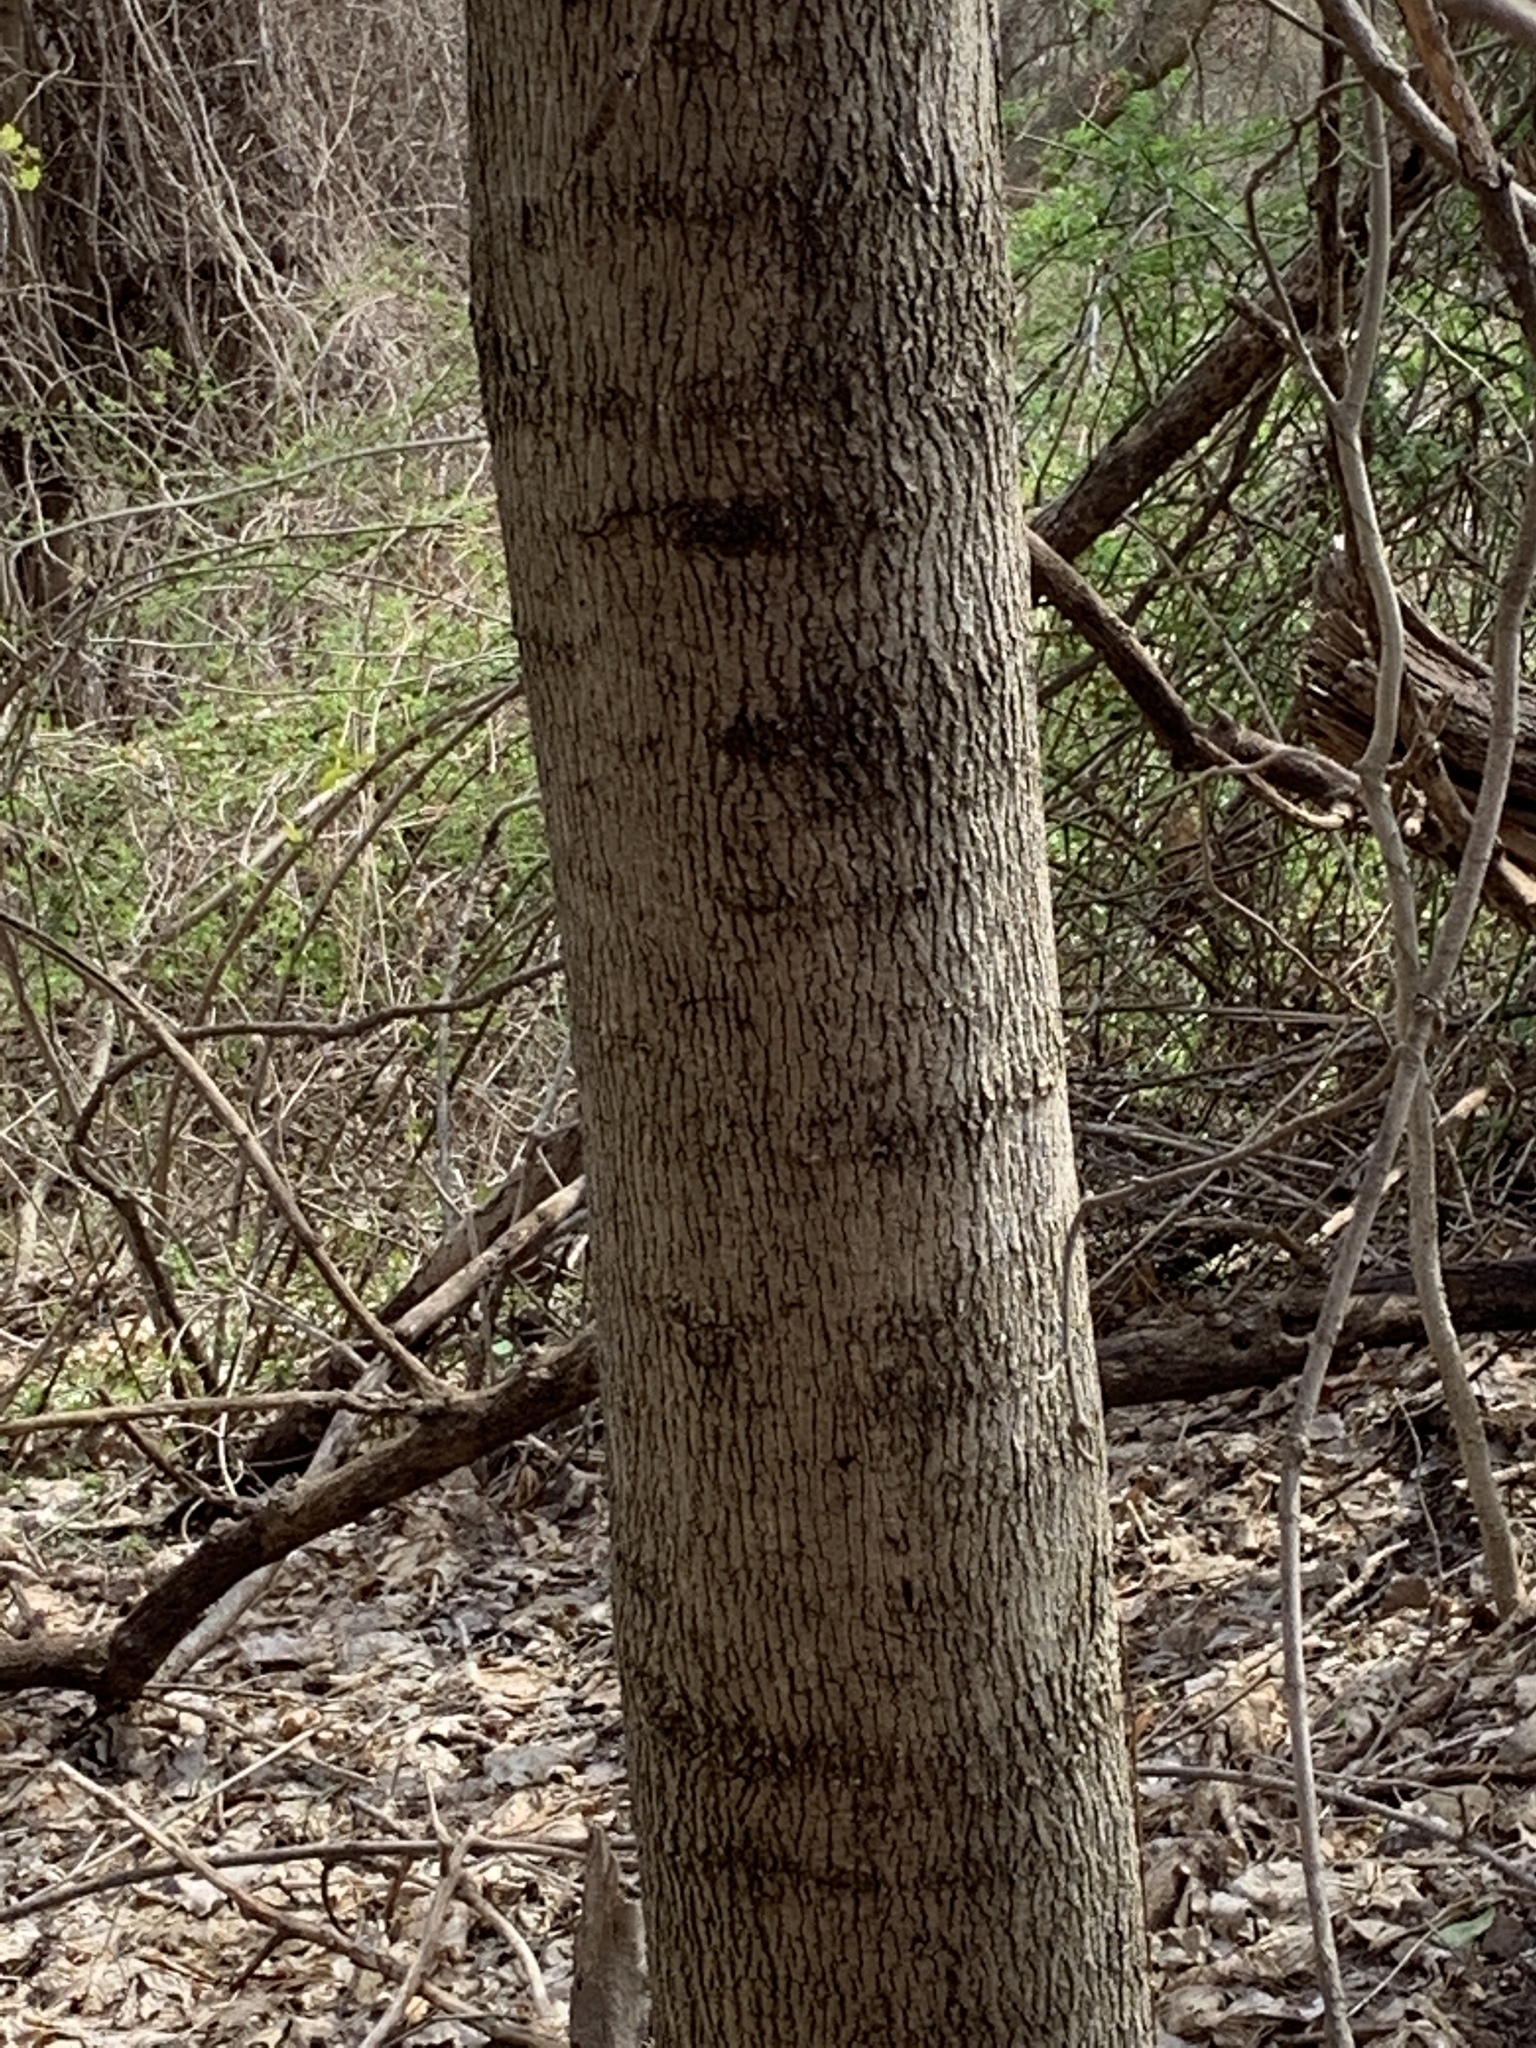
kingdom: Plantae
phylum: Tracheophyta
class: Magnoliopsida
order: Sapindales
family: Sapindaceae
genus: Acer
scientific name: Acer platanoides
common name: Norway maple
